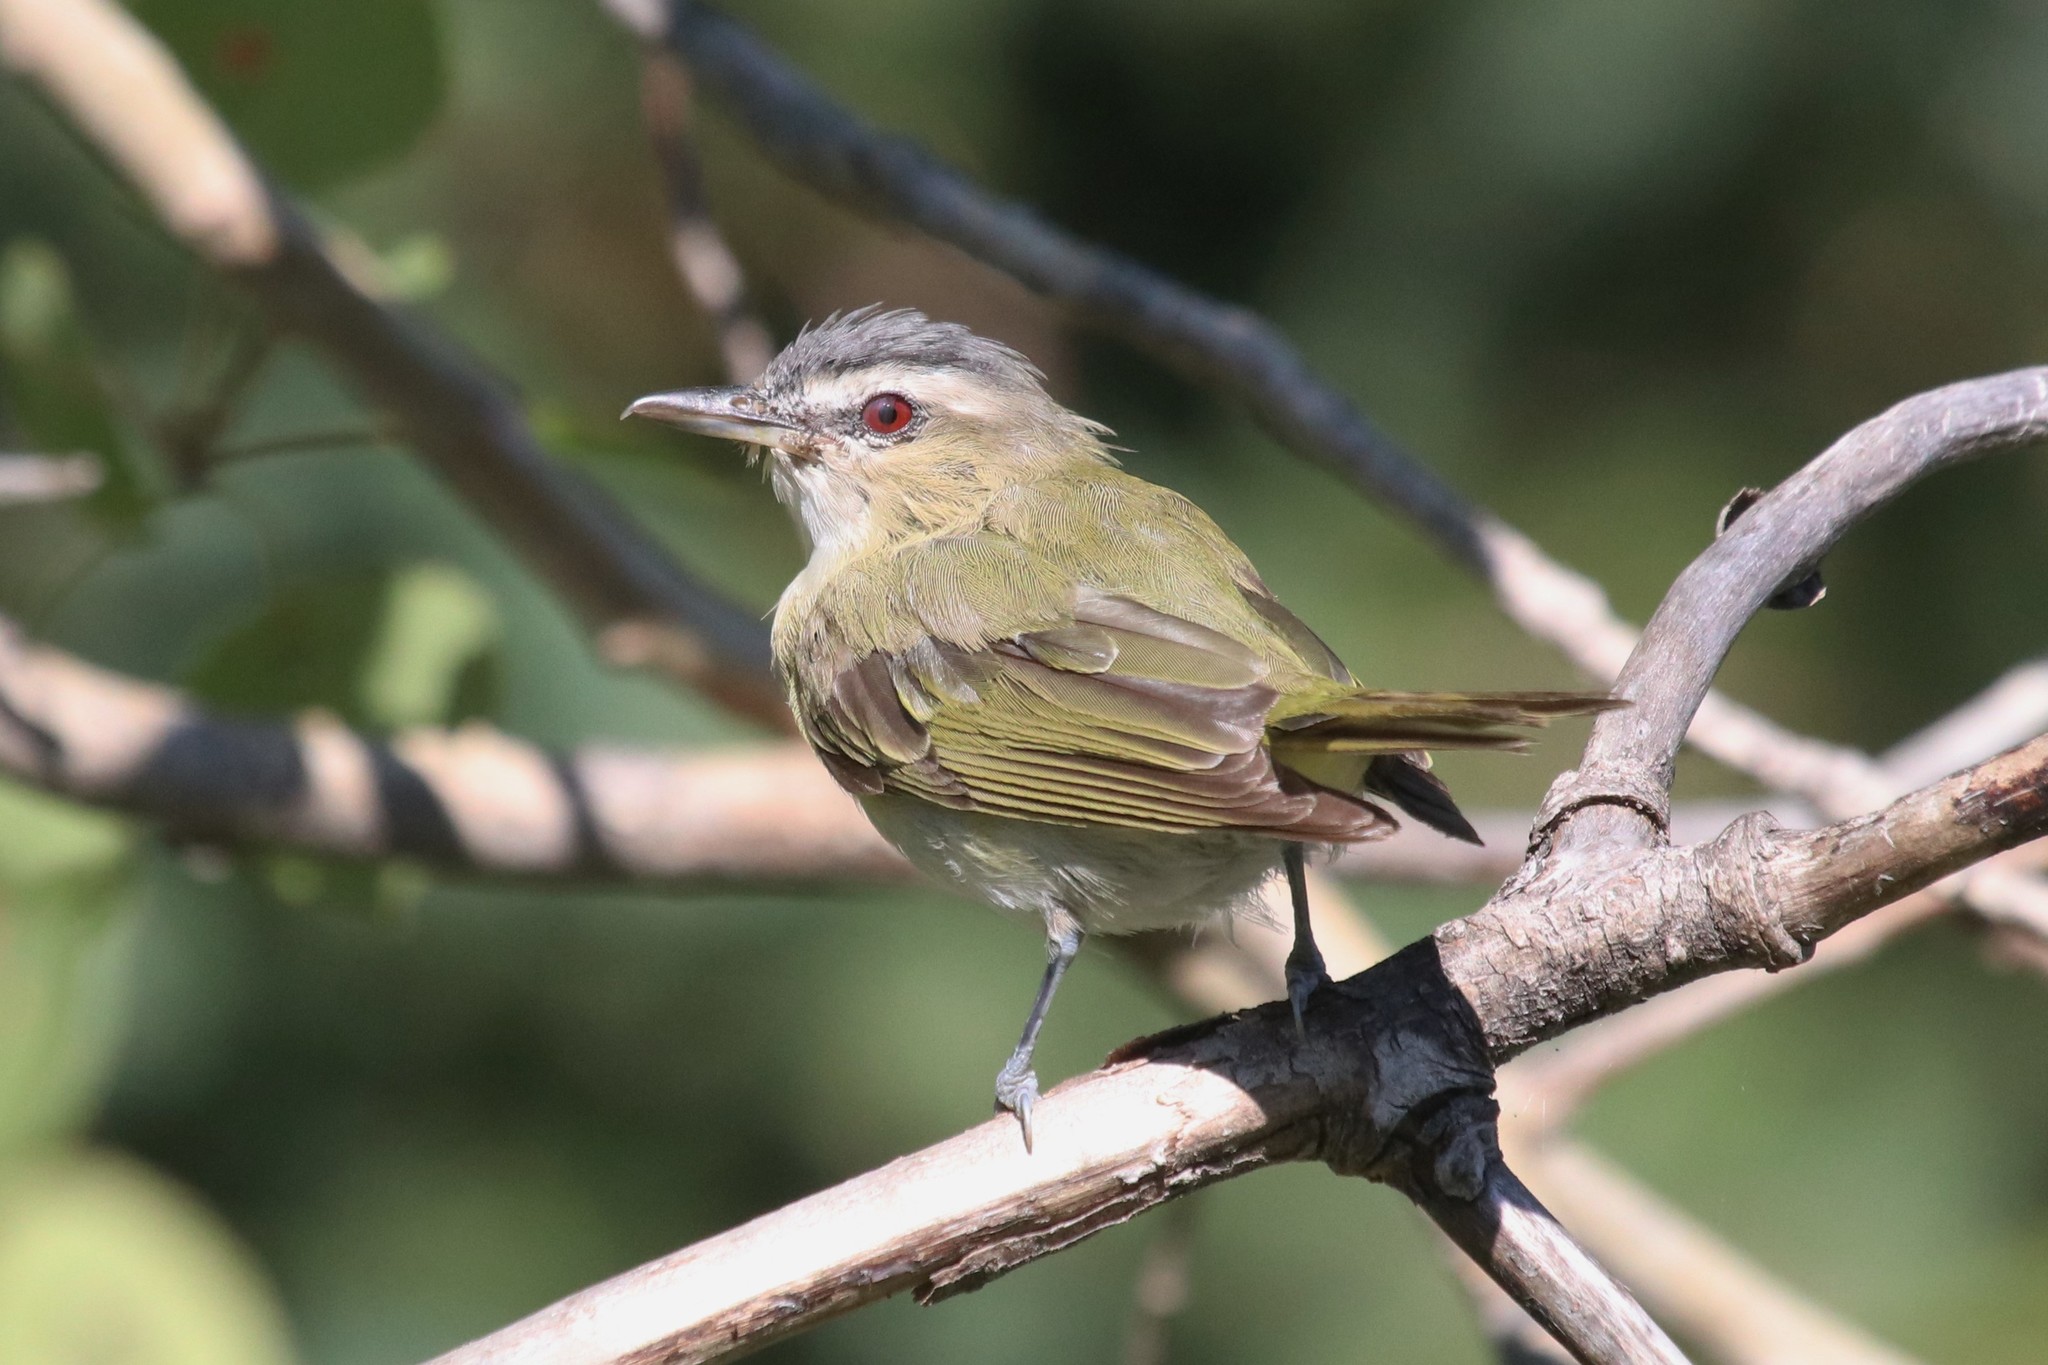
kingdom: Animalia
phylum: Chordata
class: Aves
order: Passeriformes
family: Vireonidae
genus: Vireo
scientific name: Vireo olivaceus
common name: Red-eyed vireo
